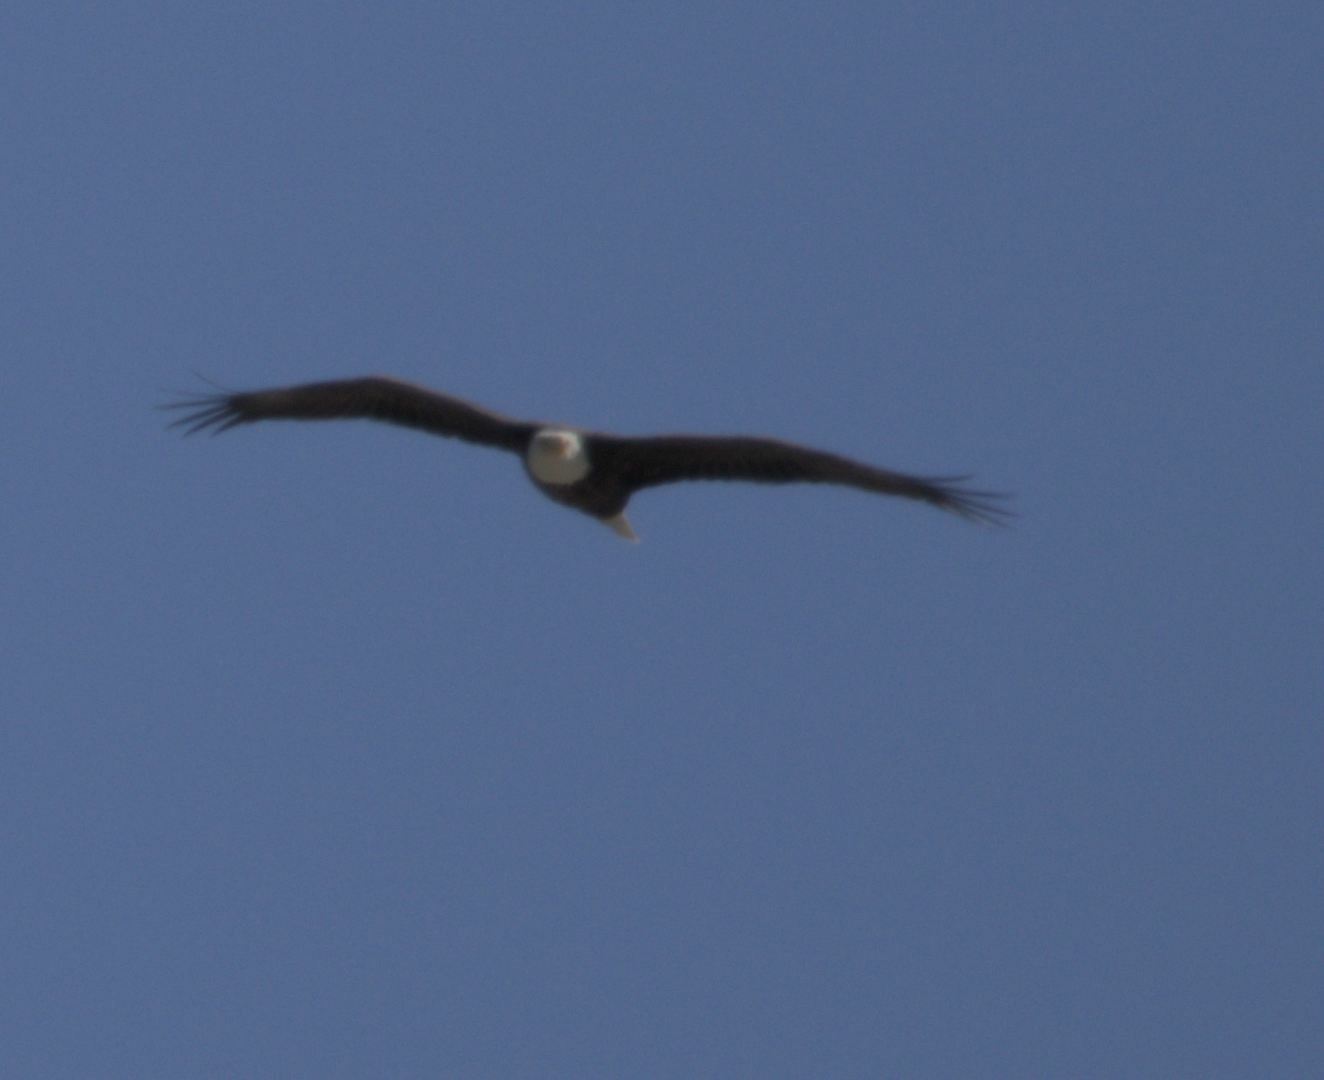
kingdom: Animalia
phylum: Chordata
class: Aves
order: Accipitriformes
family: Accipitridae
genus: Haliaeetus
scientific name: Haliaeetus leucocephalus
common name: Bald eagle
